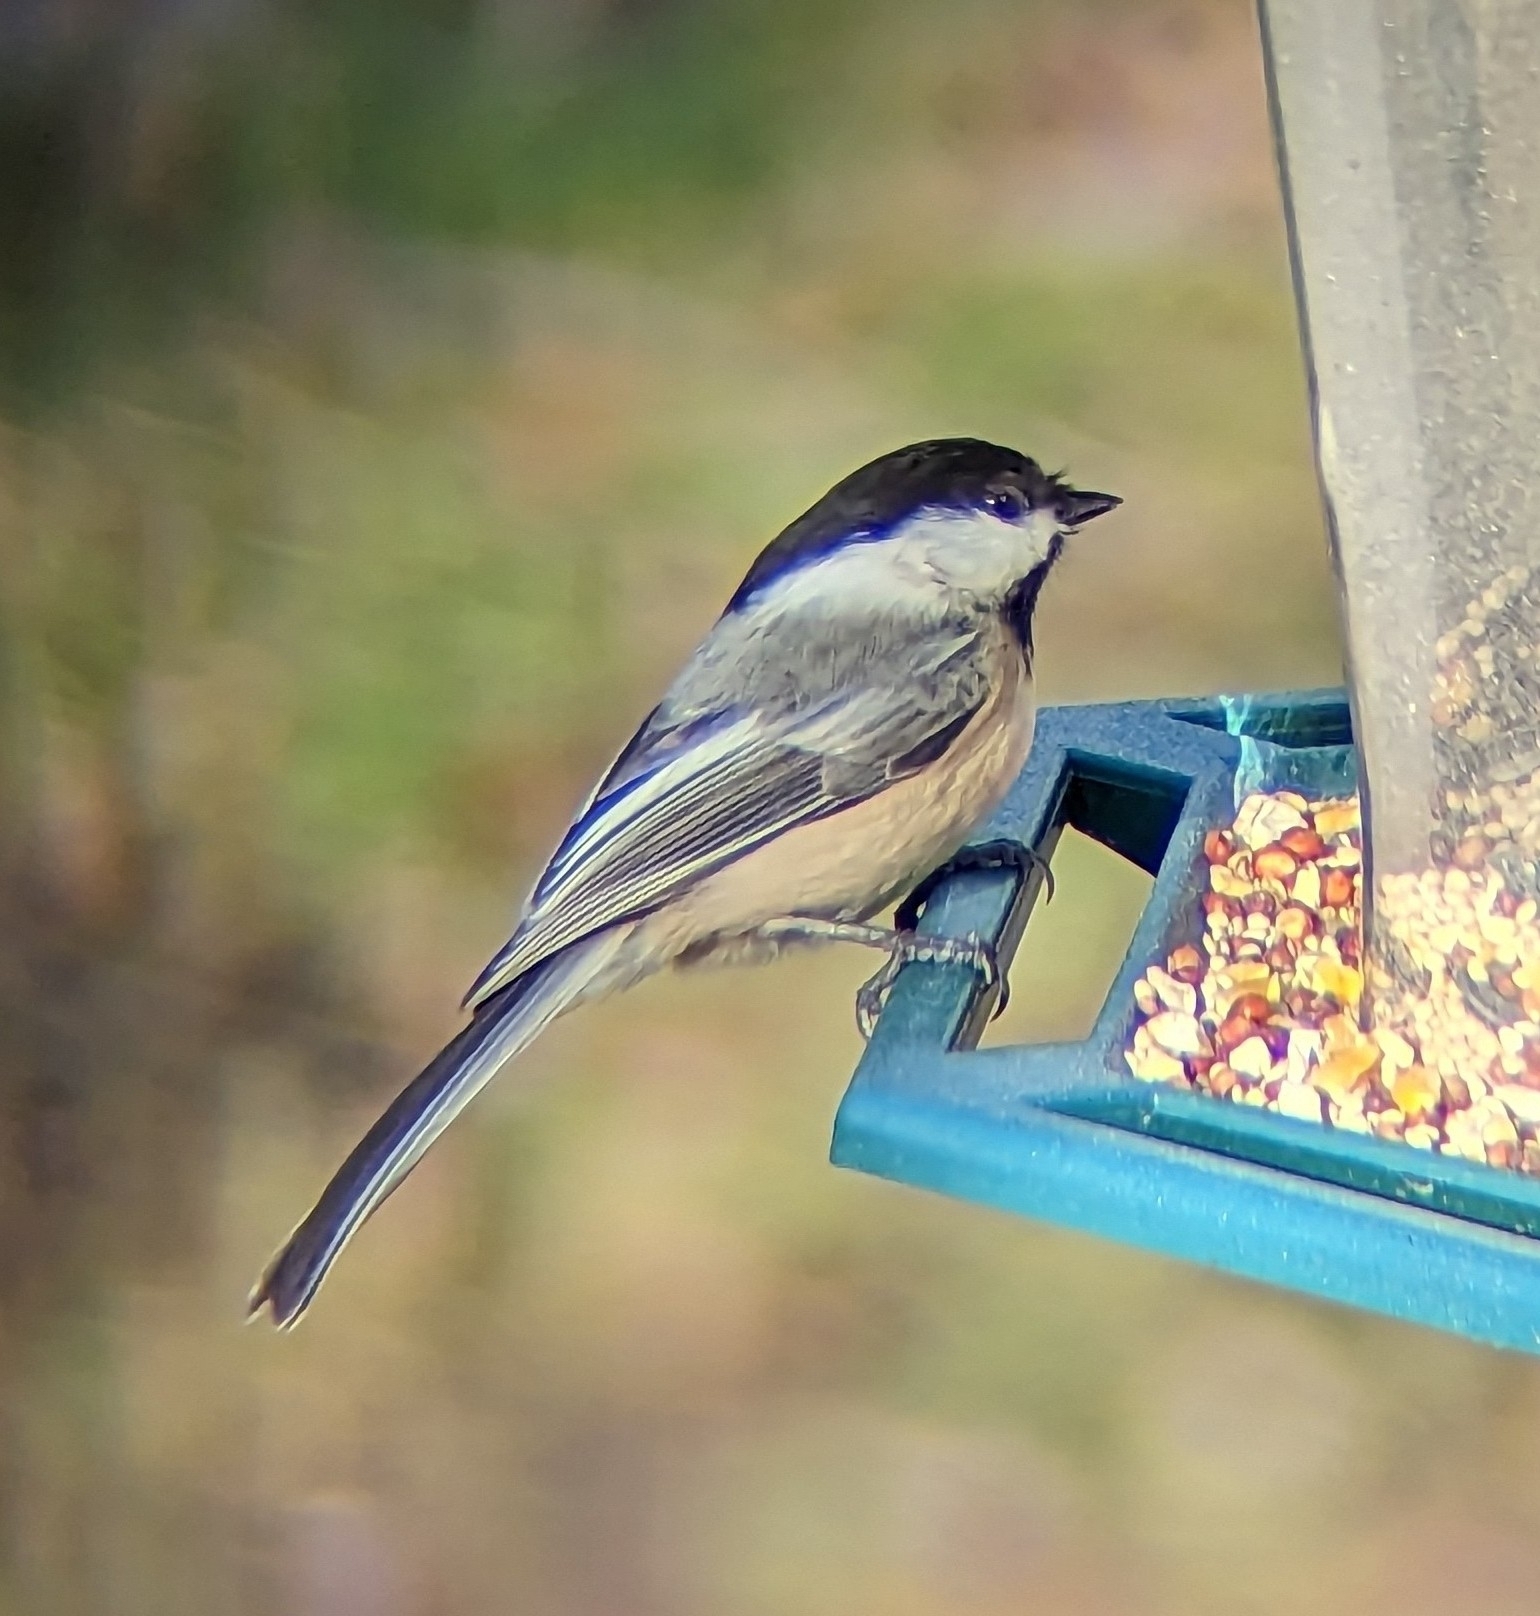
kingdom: Animalia
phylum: Chordata
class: Aves
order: Passeriformes
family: Paridae
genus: Poecile
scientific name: Poecile atricapillus
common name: Black-capped chickadee
